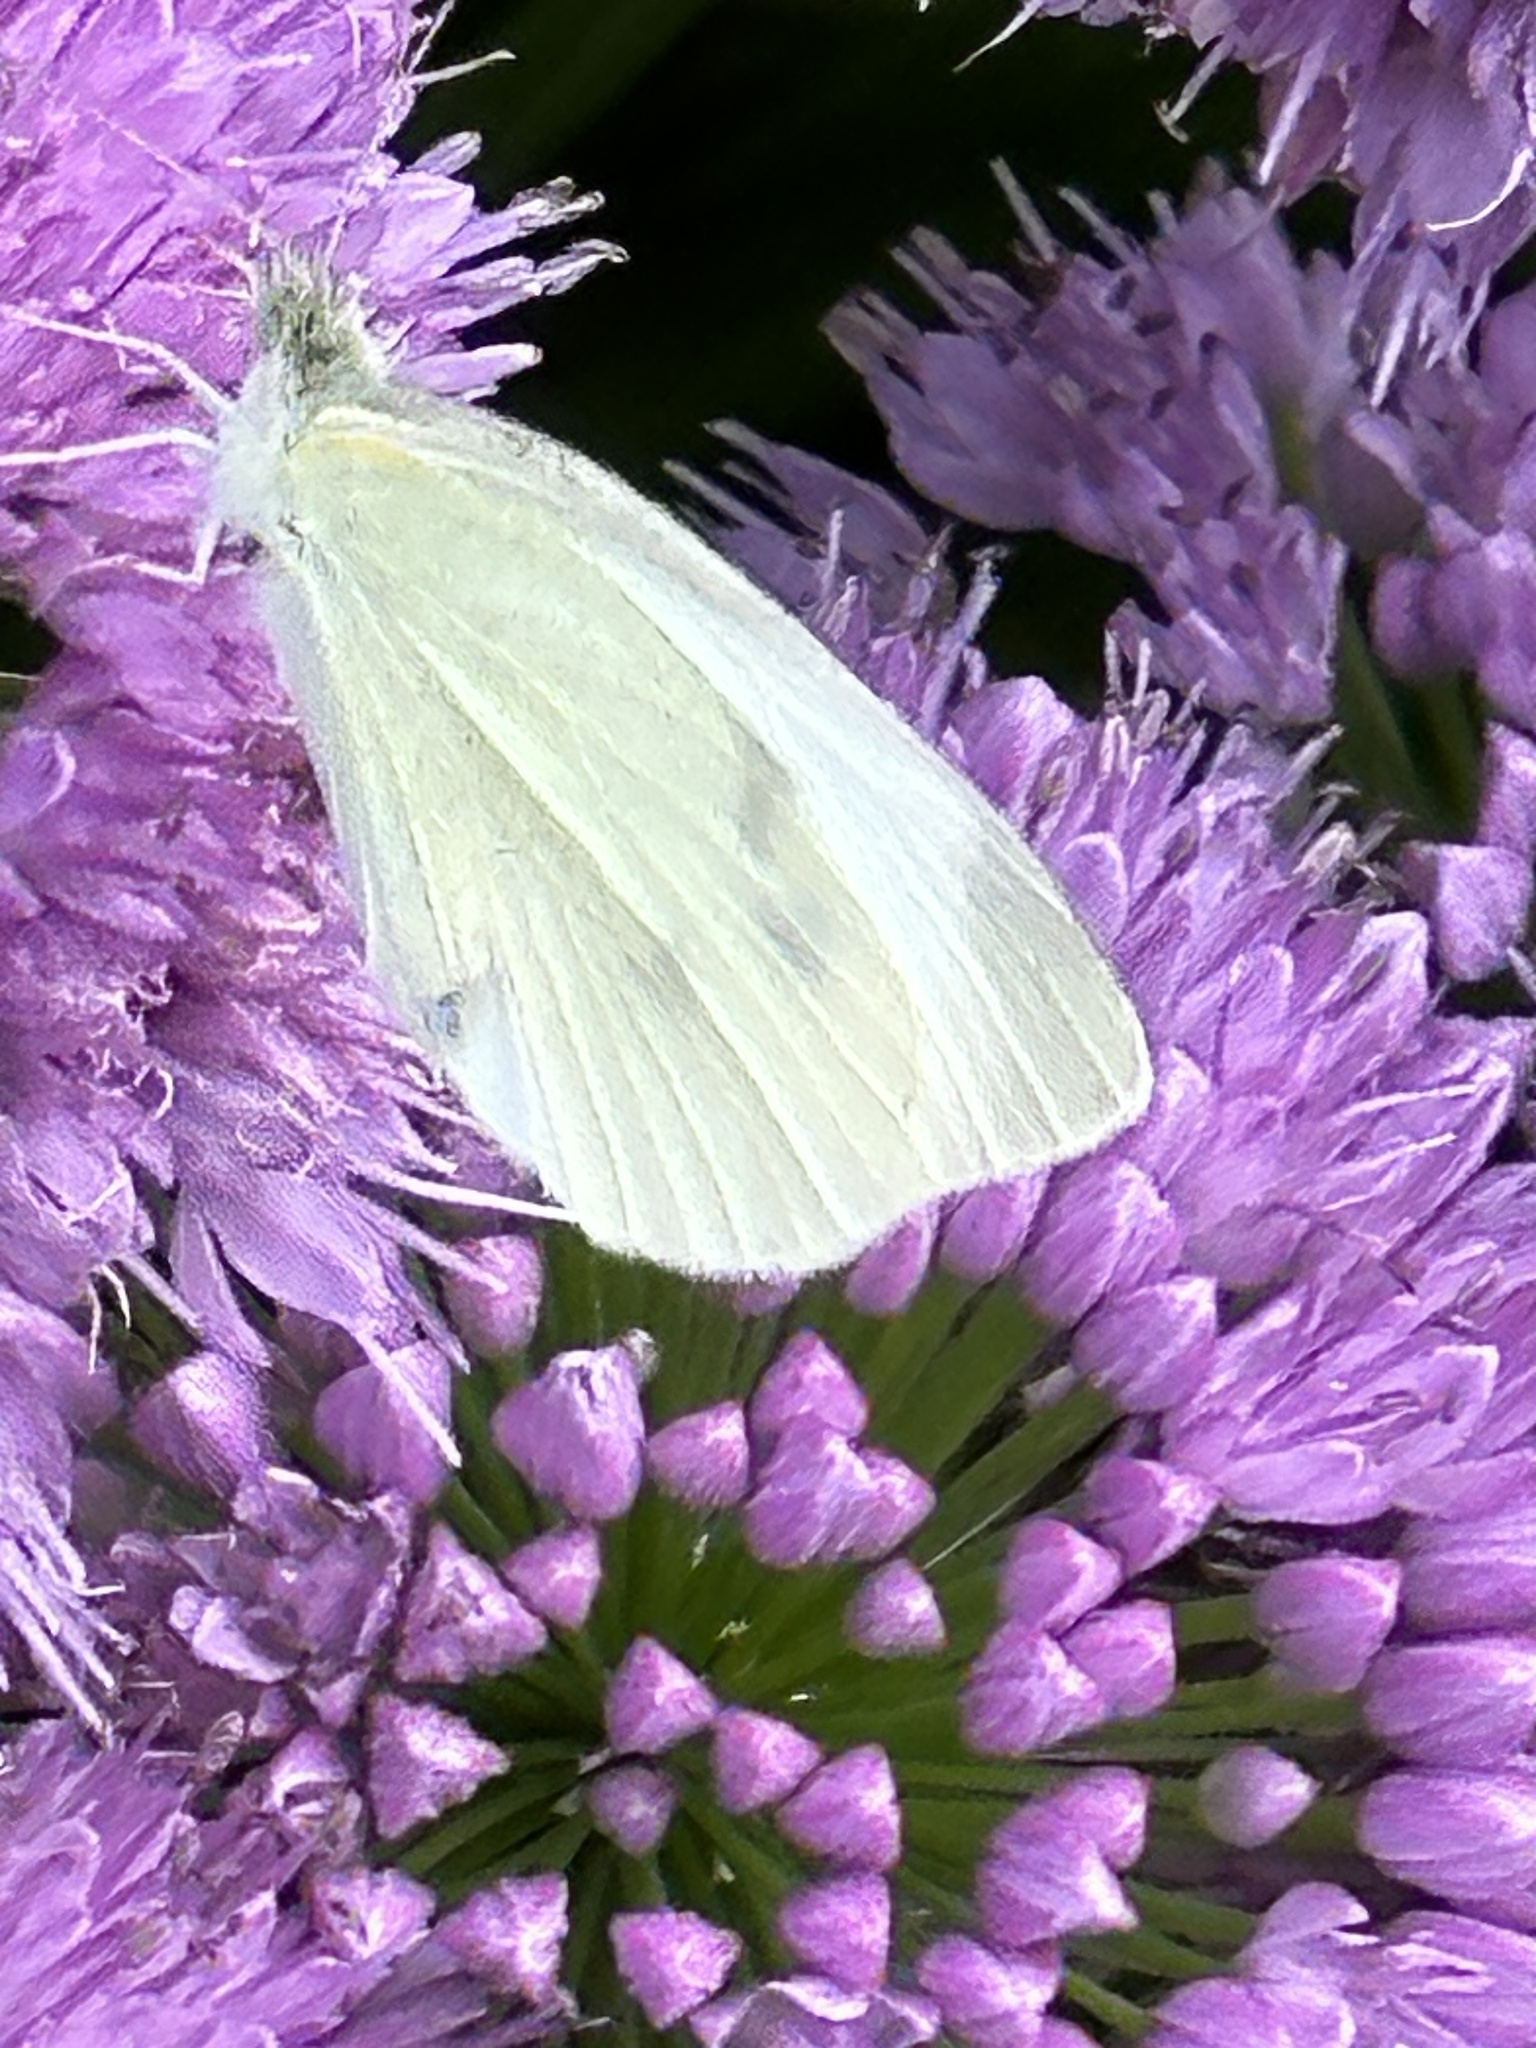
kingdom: Animalia
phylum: Arthropoda
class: Insecta
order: Lepidoptera
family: Pieridae
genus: Pieris
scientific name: Pieris rapae
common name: Small white
